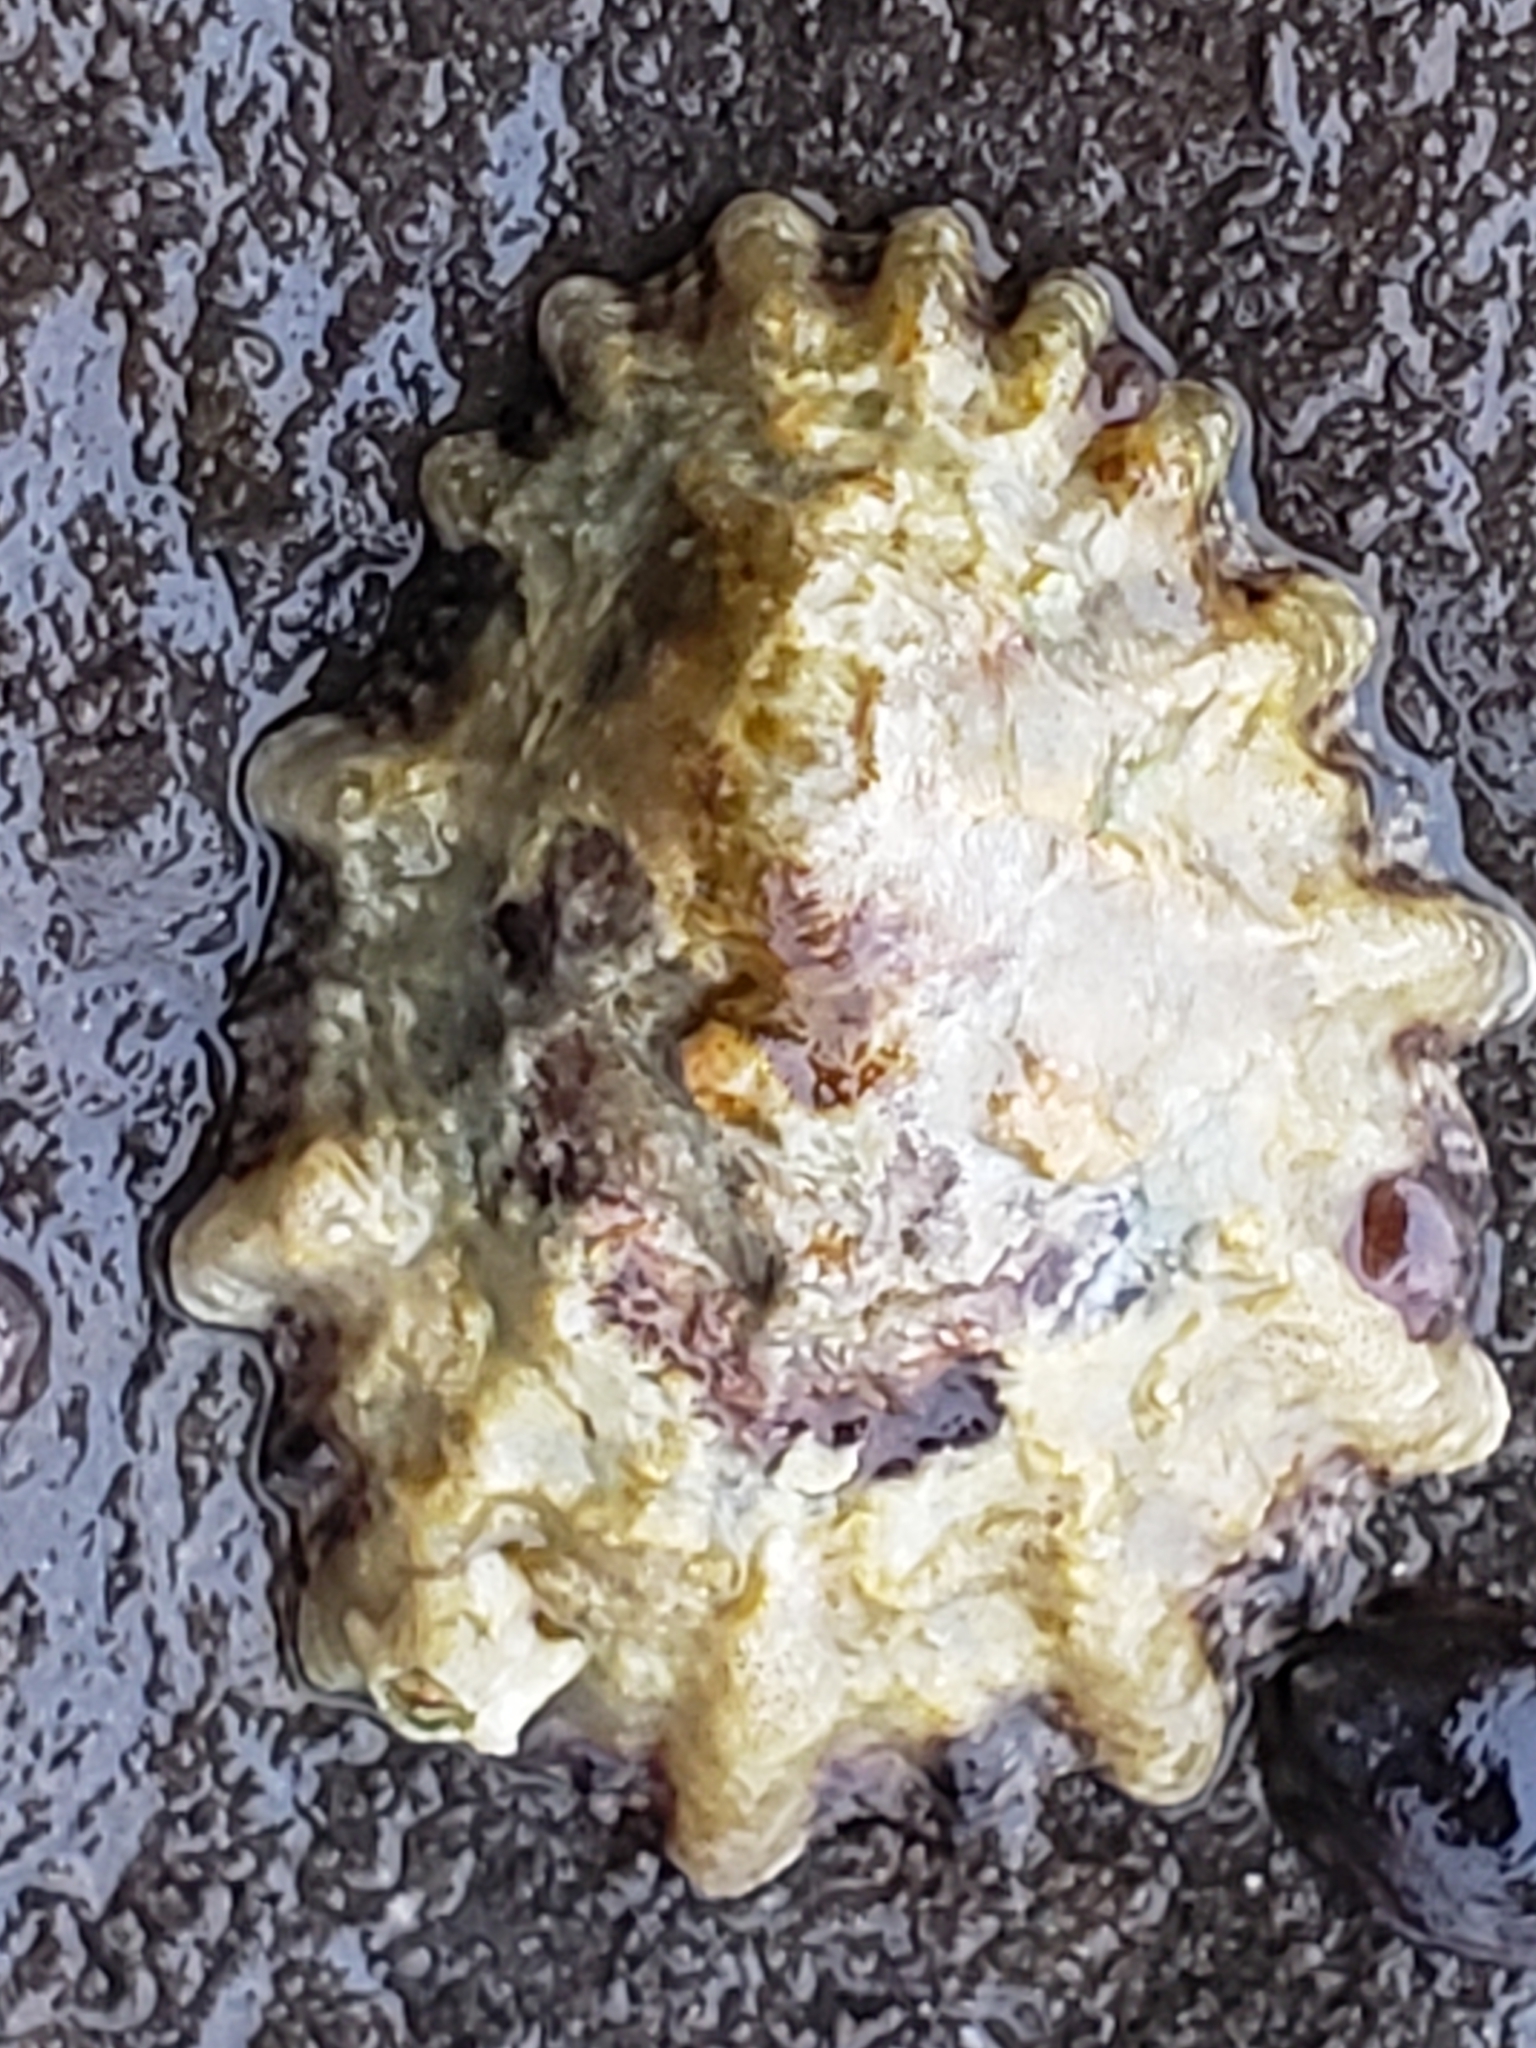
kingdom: Animalia
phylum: Mollusca
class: Gastropoda
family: Lottiidae
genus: Lottia
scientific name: Lottia scabra
